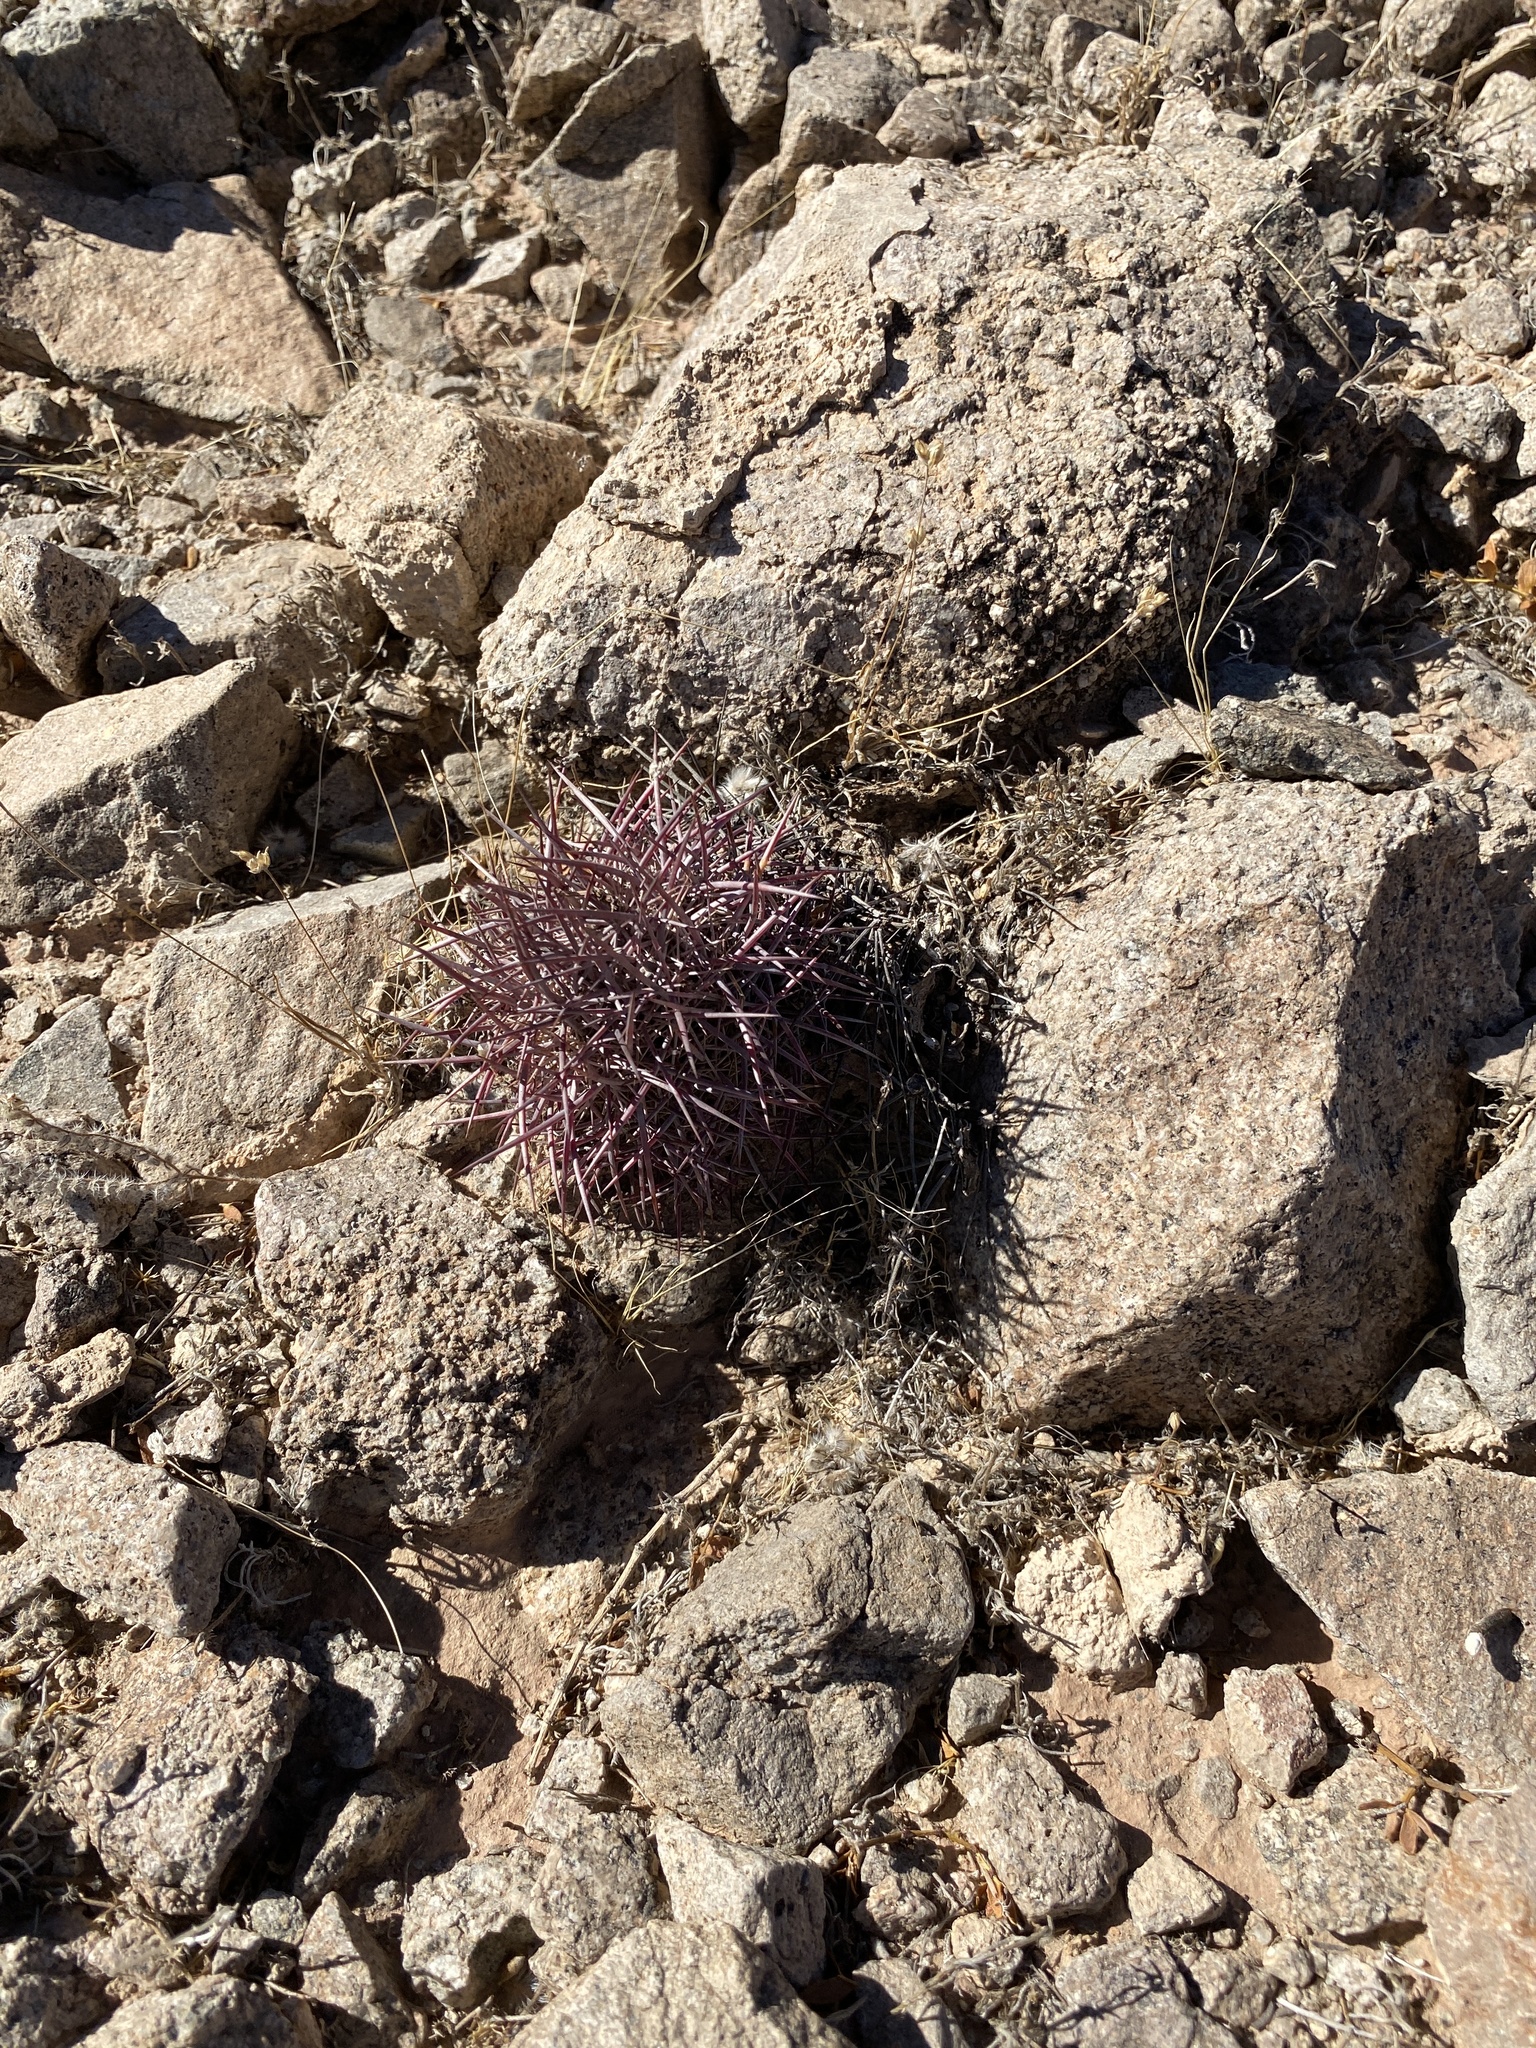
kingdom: Plantae
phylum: Tracheophyta
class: Magnoliopsida
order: Caryophyllales
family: Cactaceae
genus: Sclerocactus
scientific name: Sclerocactus johnsonii
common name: Eight-spine fishhook cactus
